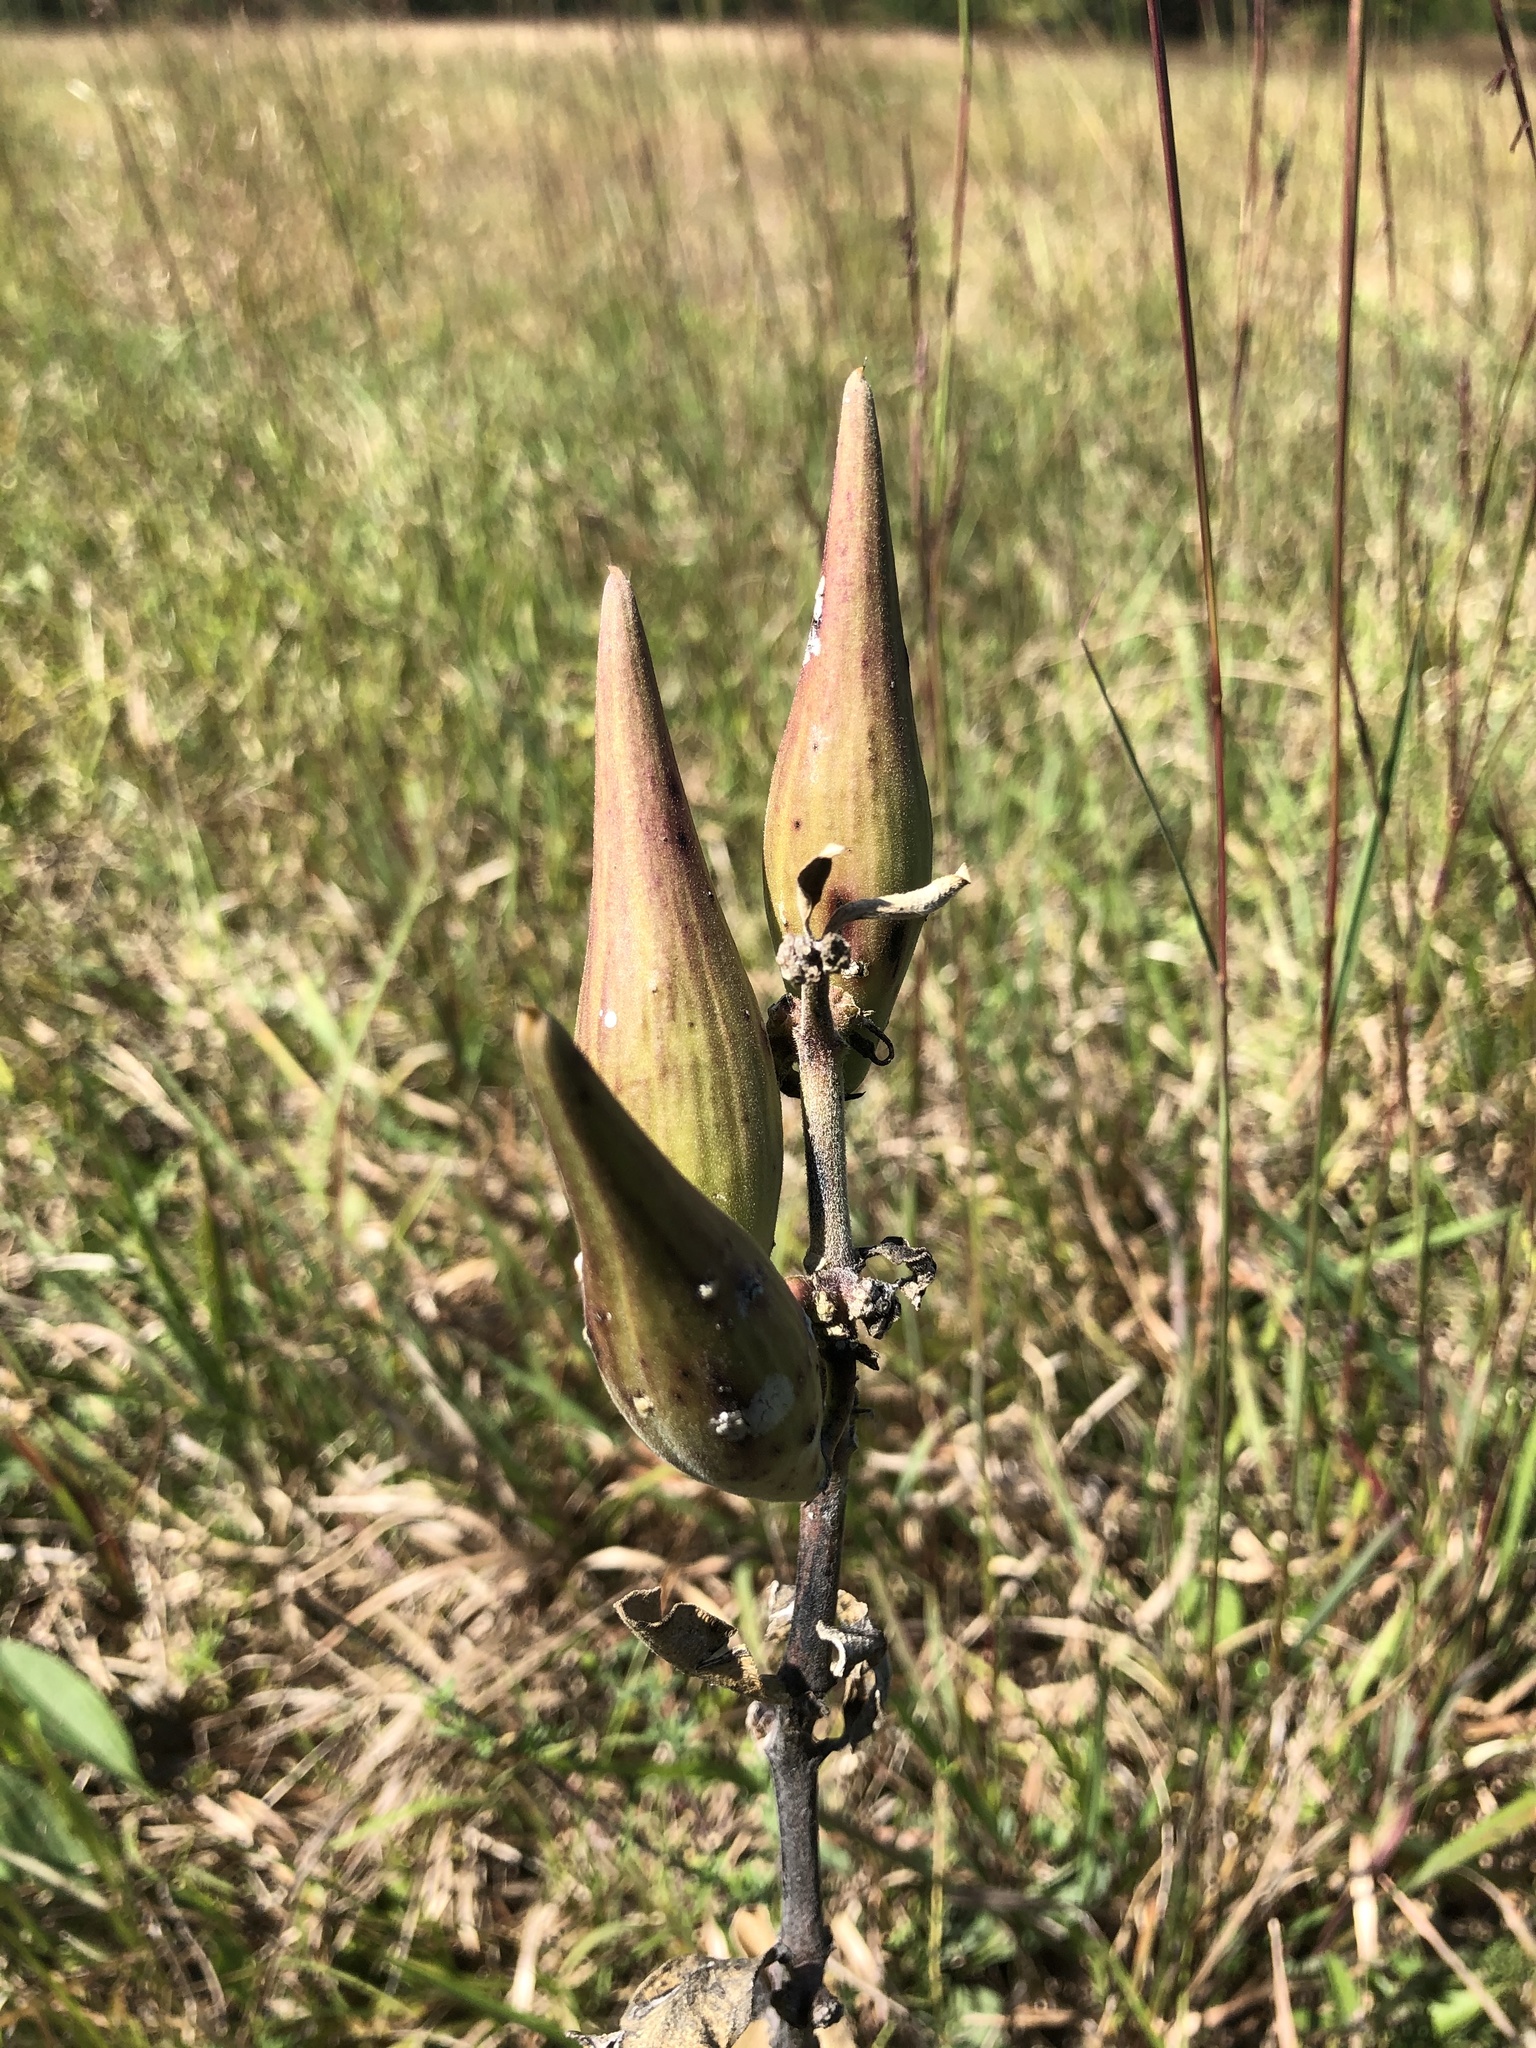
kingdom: Plantae
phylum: Tracheophyta
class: Magnoliopsida
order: Gentianales
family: Apocynaceae
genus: Asclepias
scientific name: Asclepias viridiflora
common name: Green comet milkweed
